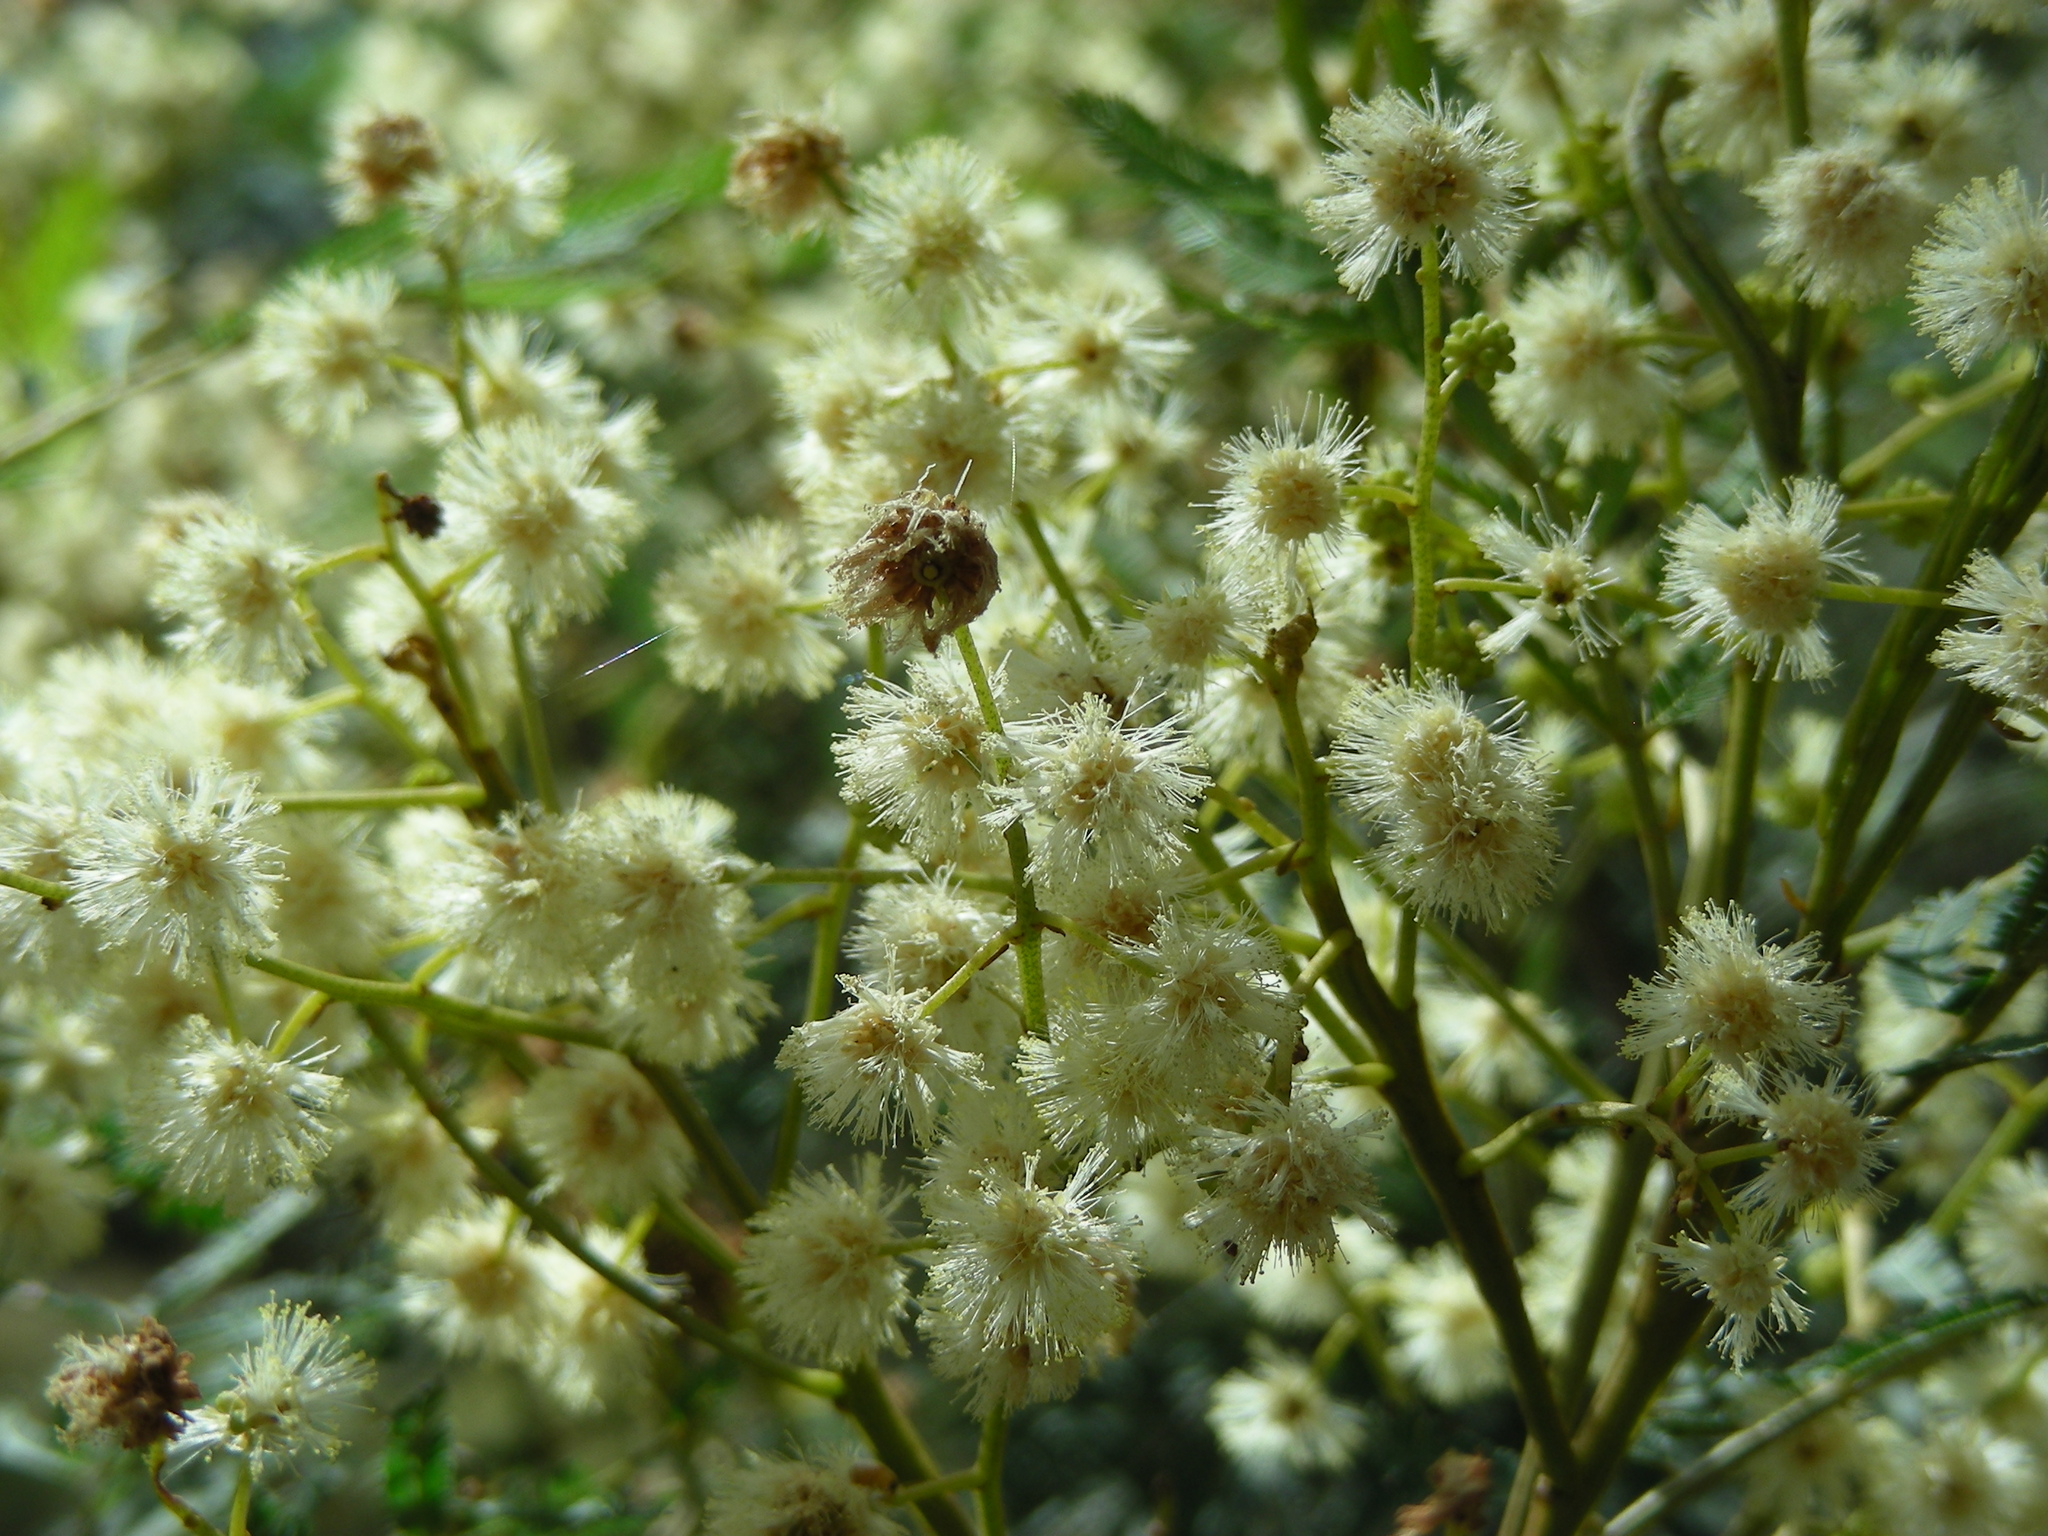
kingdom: Plantae
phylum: Tracheophyta
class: Magnoliopsida
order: Asterales
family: Asteraceae
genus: Erigeron
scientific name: Erigeron bonariensis
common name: Argentine fleabane
